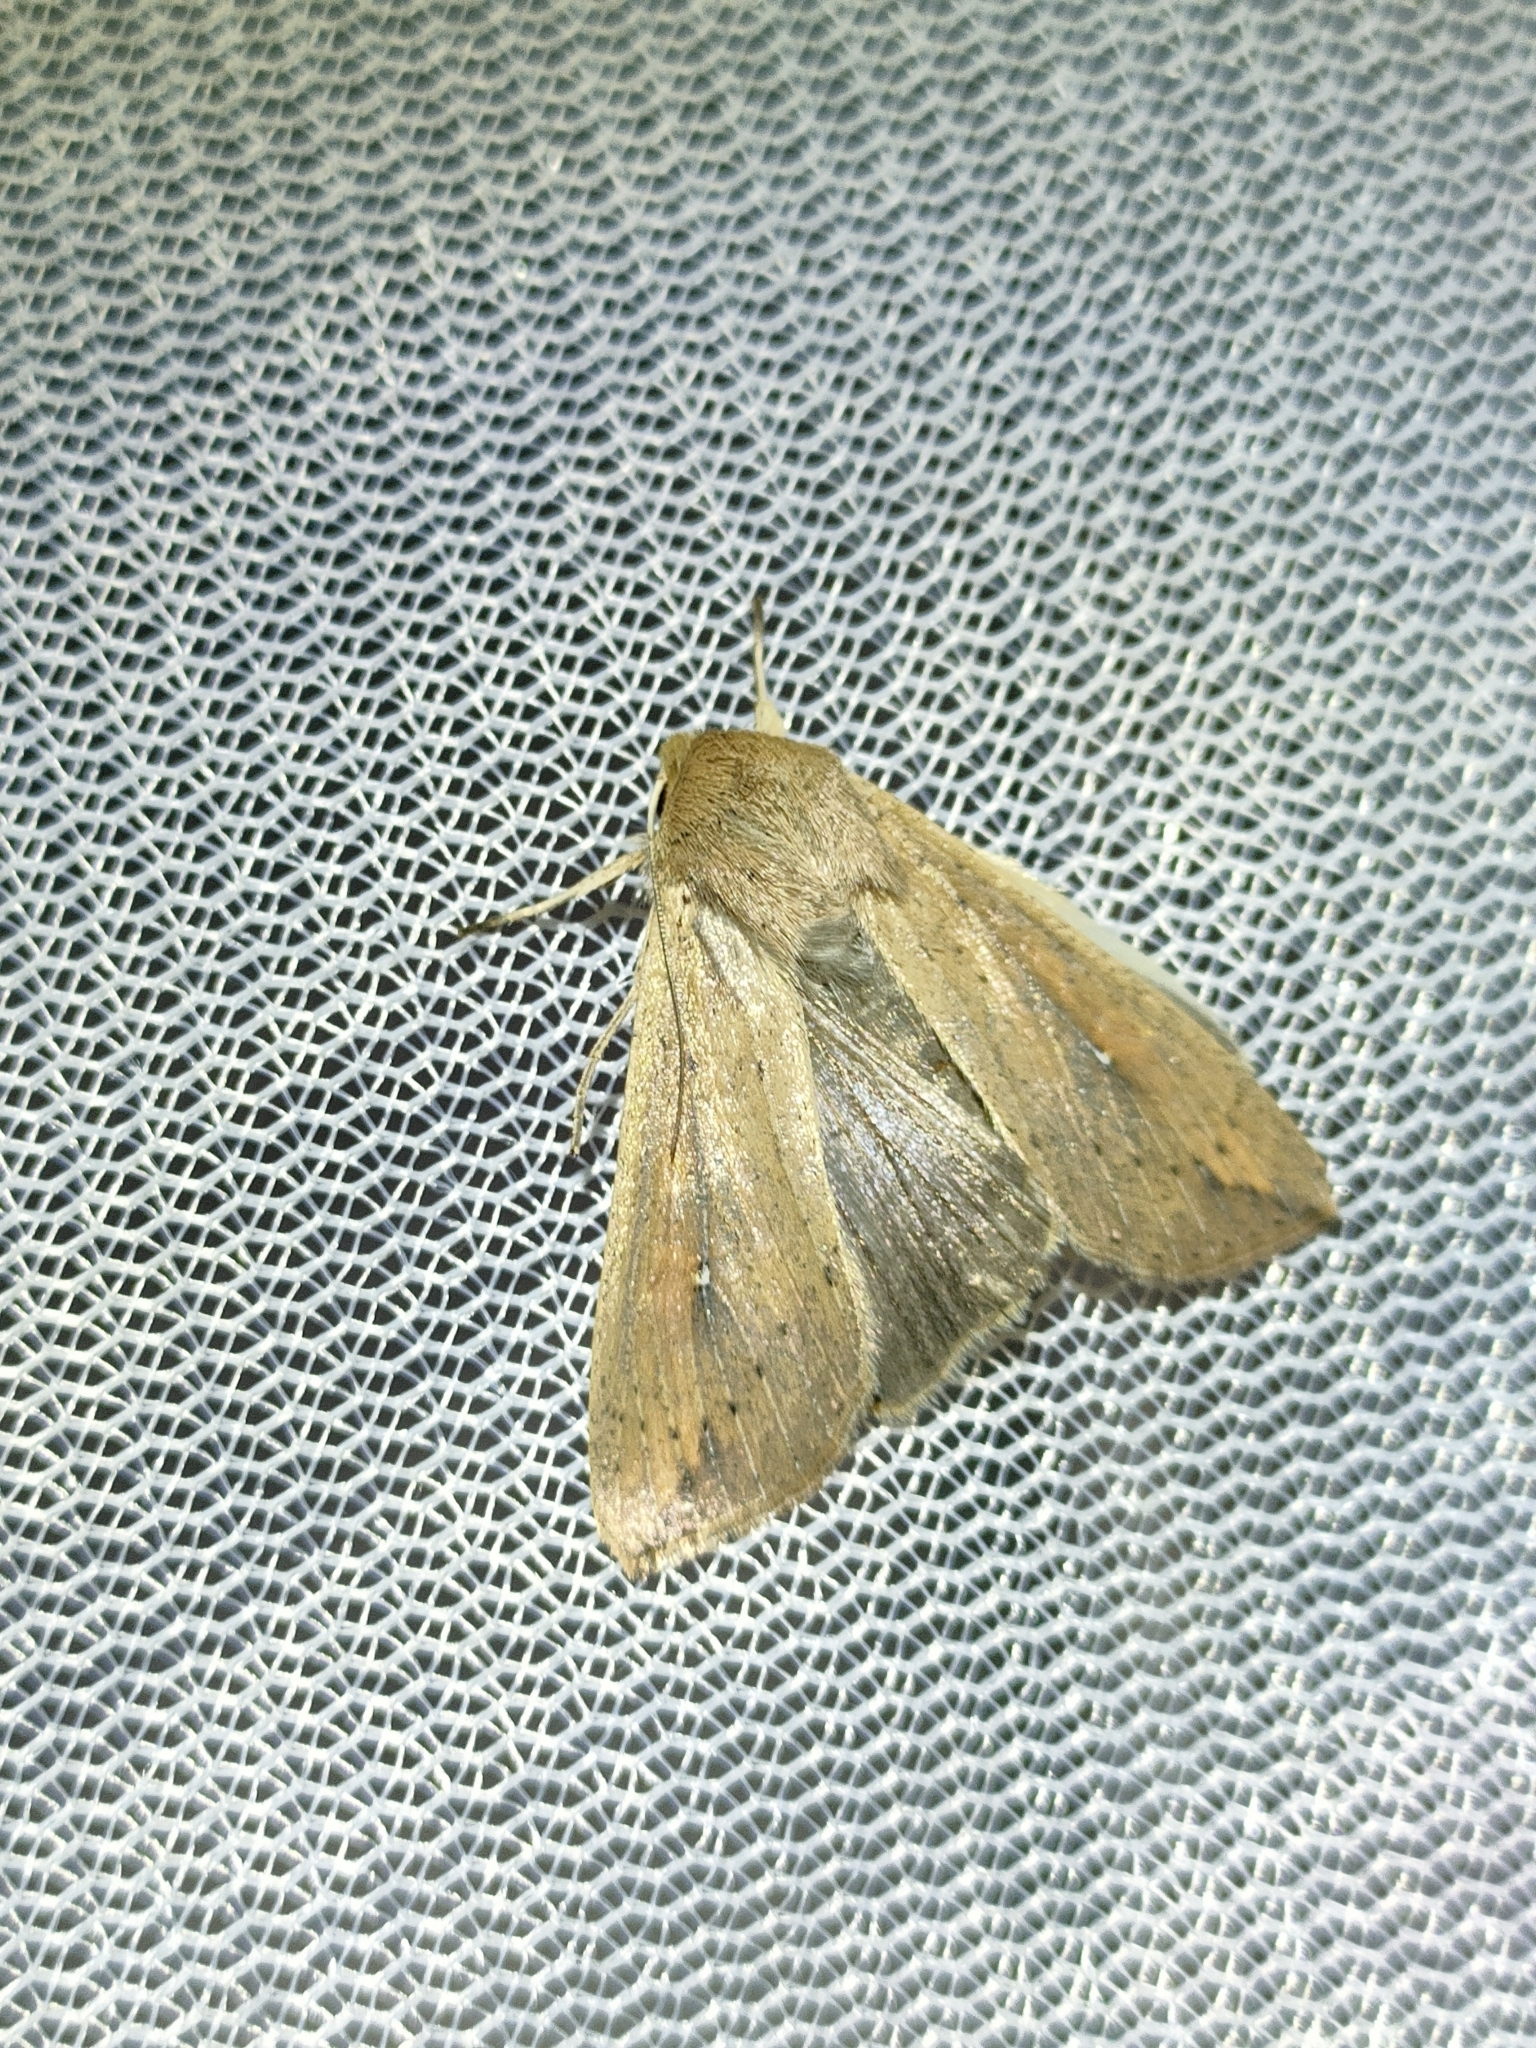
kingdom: Animalia
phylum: Arthropoda
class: Insecta
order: Lepidoptera
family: Noctuidae
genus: Mythimna
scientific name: Mythimna unipuncta
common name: White-speck
